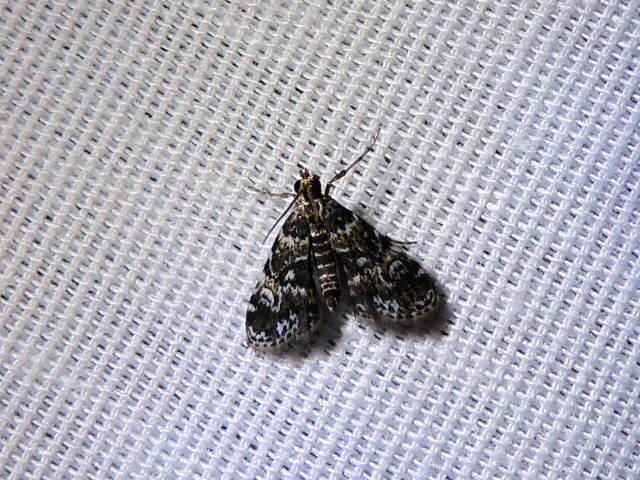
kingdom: Animalia
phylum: Arthropoda
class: Insecta
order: Lepidoptera
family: Crambidae
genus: Elophila
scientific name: Elophila obliteralis
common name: Waterlily leafcutter moth
